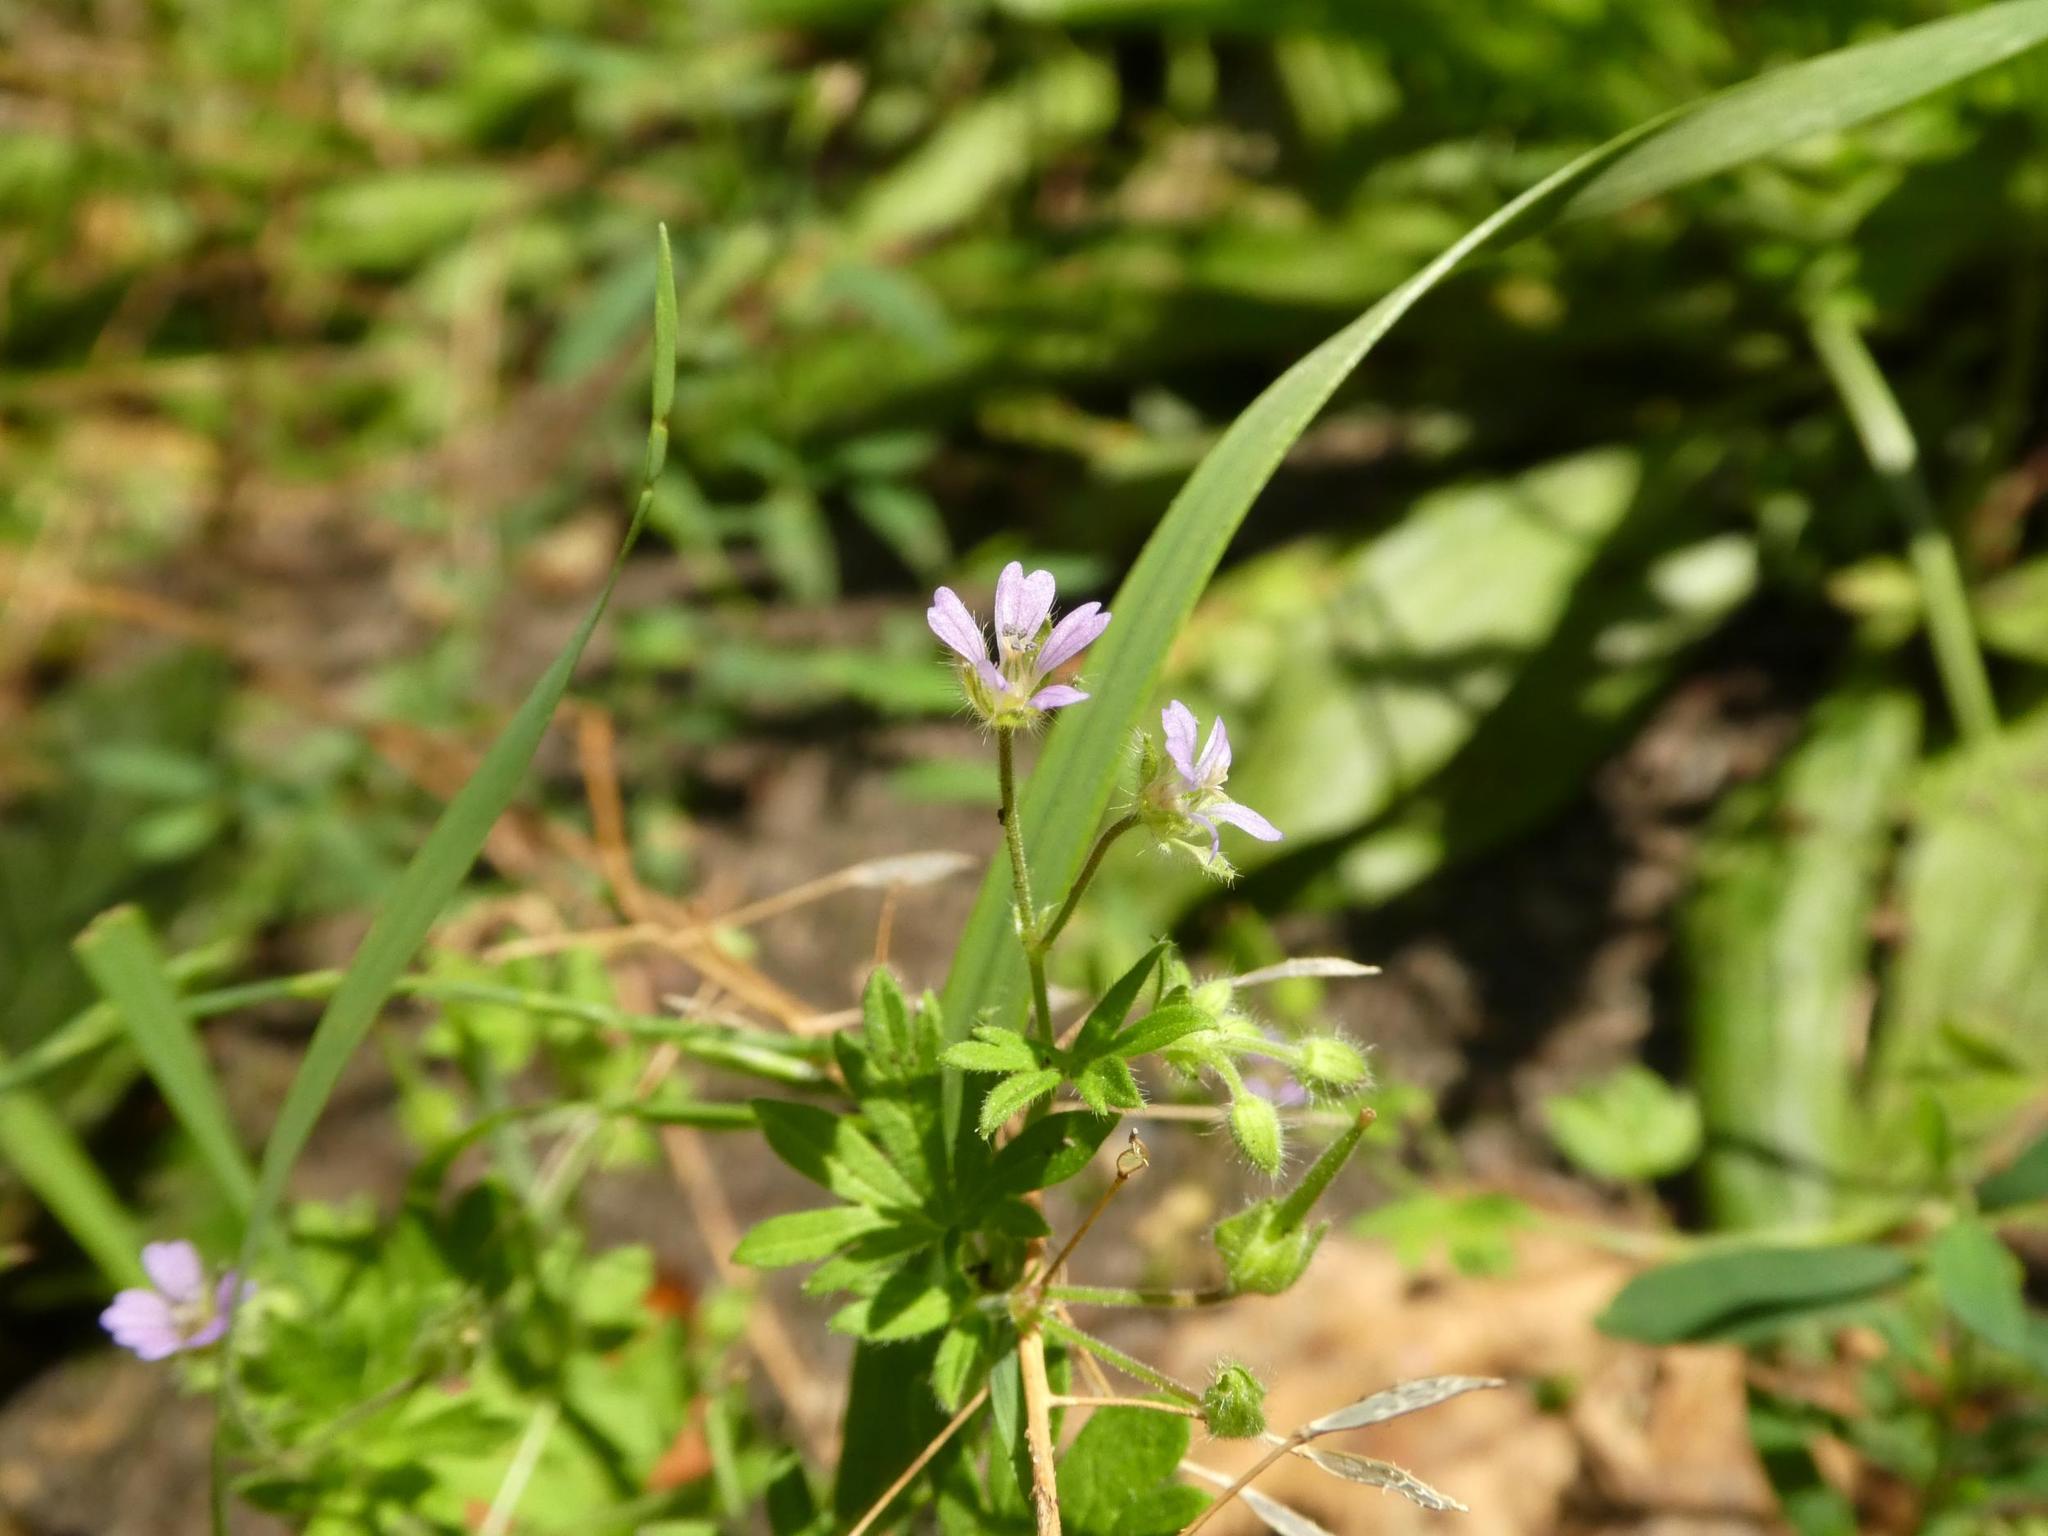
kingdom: Plantae
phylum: Tracheophyta
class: Magnoliopsida
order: Geraniales
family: Geraniaceae
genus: Geranium
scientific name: Geranium pusillum
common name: Small geranium
